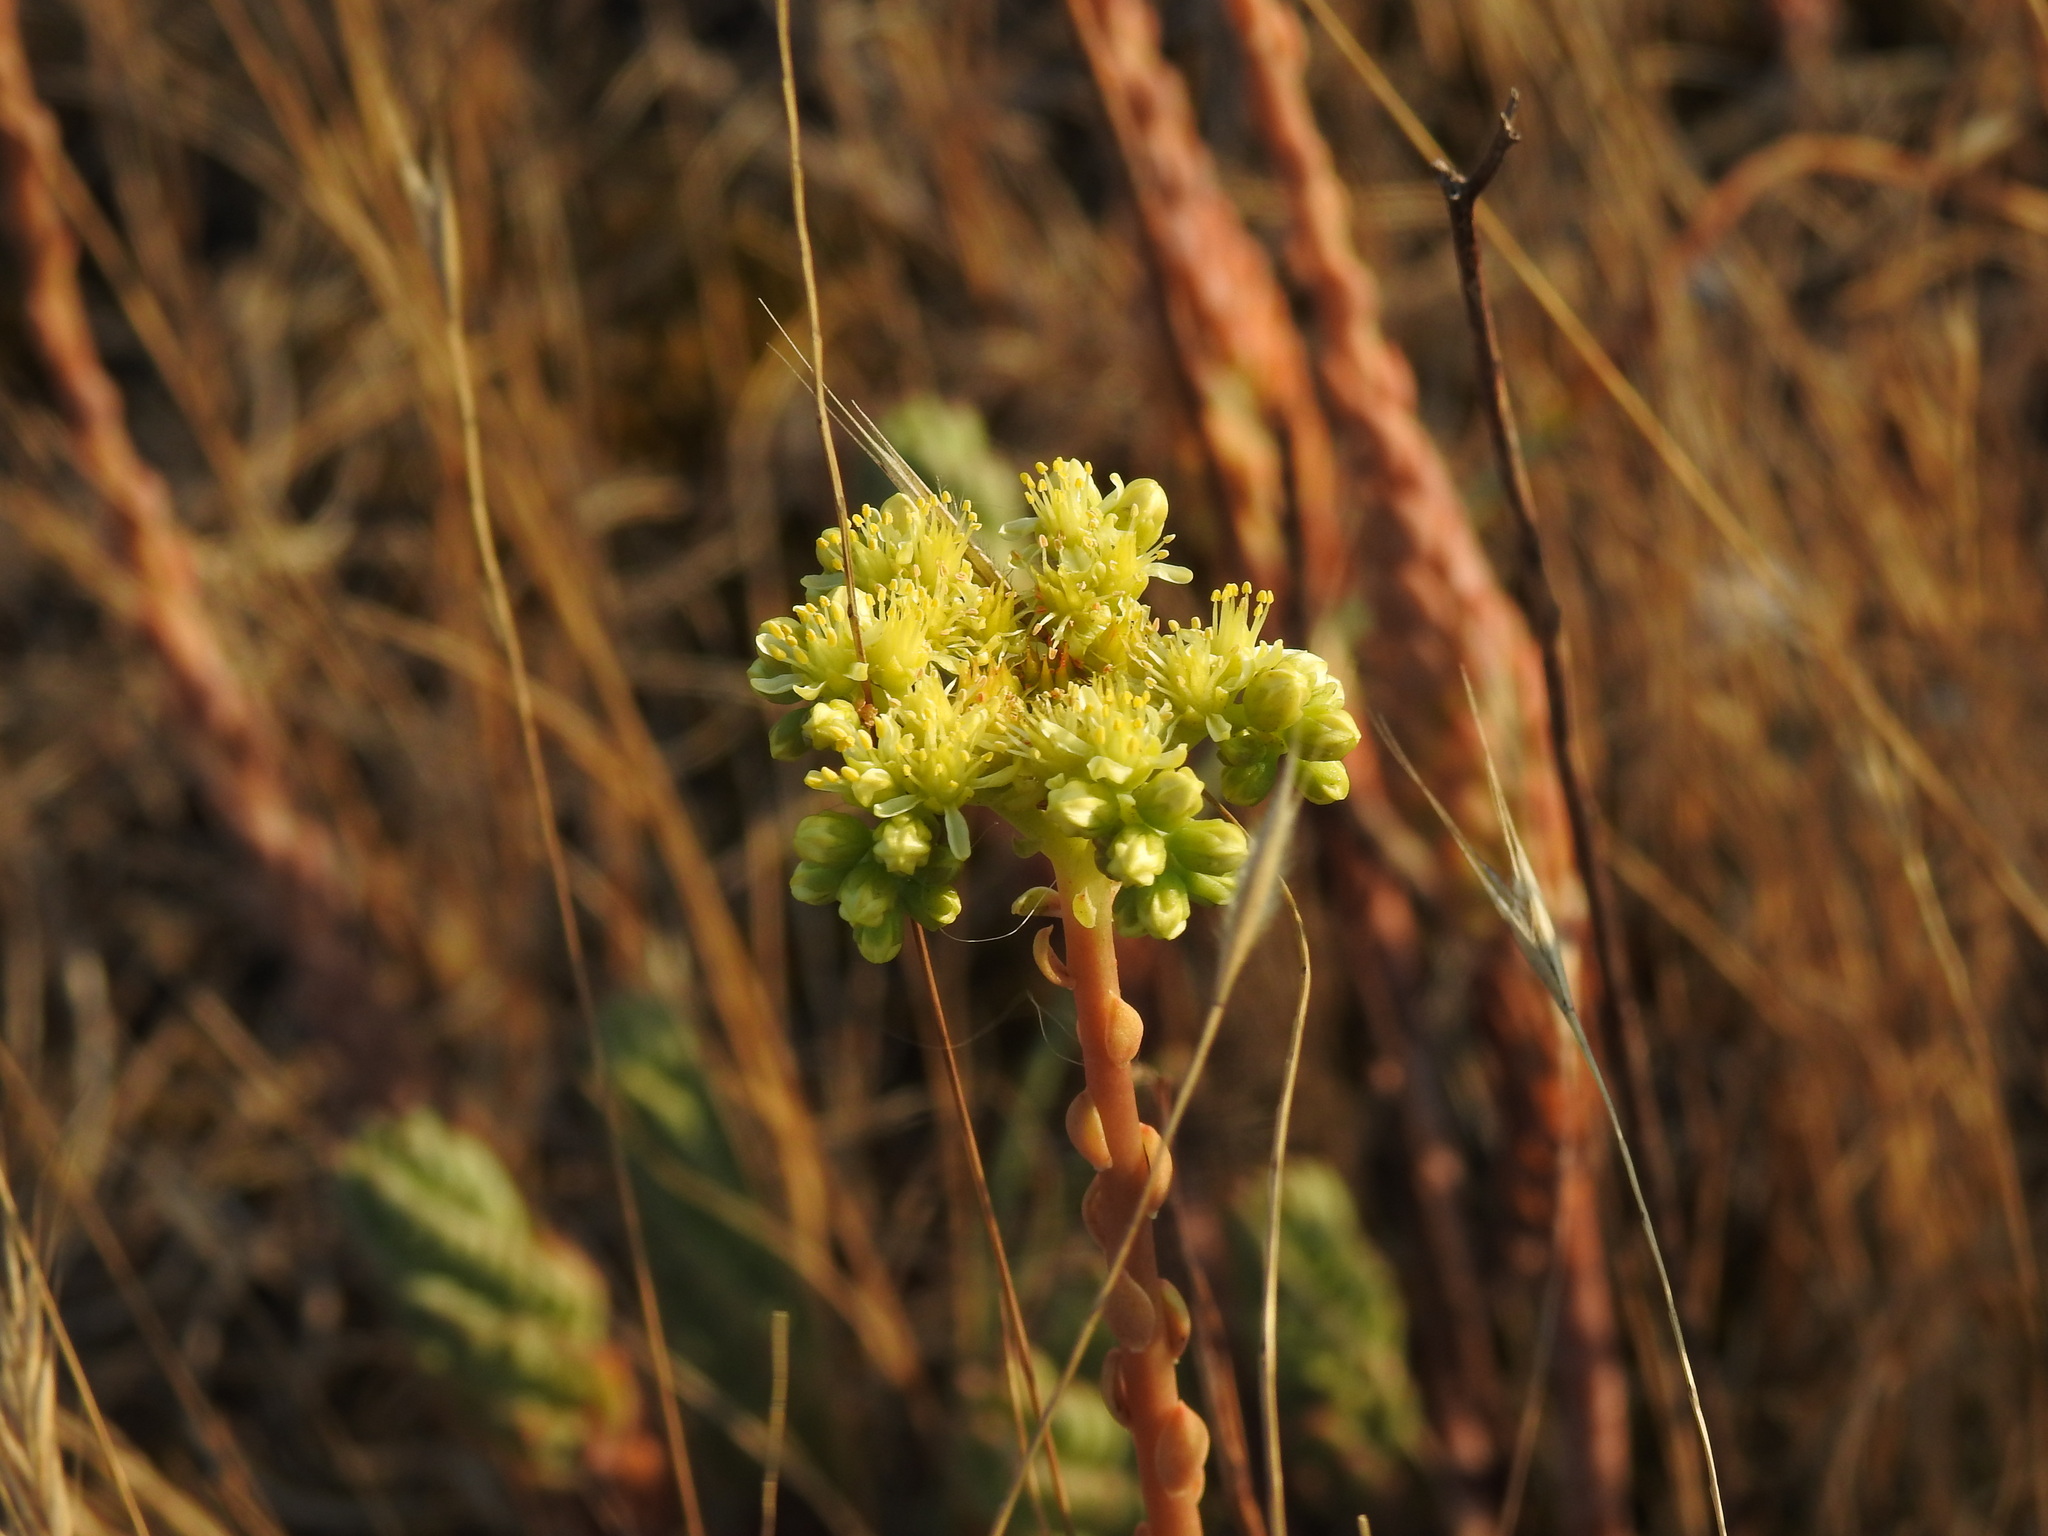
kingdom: Plantae
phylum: Tracheophyta
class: Magnoliopsida
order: Saxifragales
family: Crassulaceae
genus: Petrosedum
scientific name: Petrosedum sediforme
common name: Pale stonecrop
